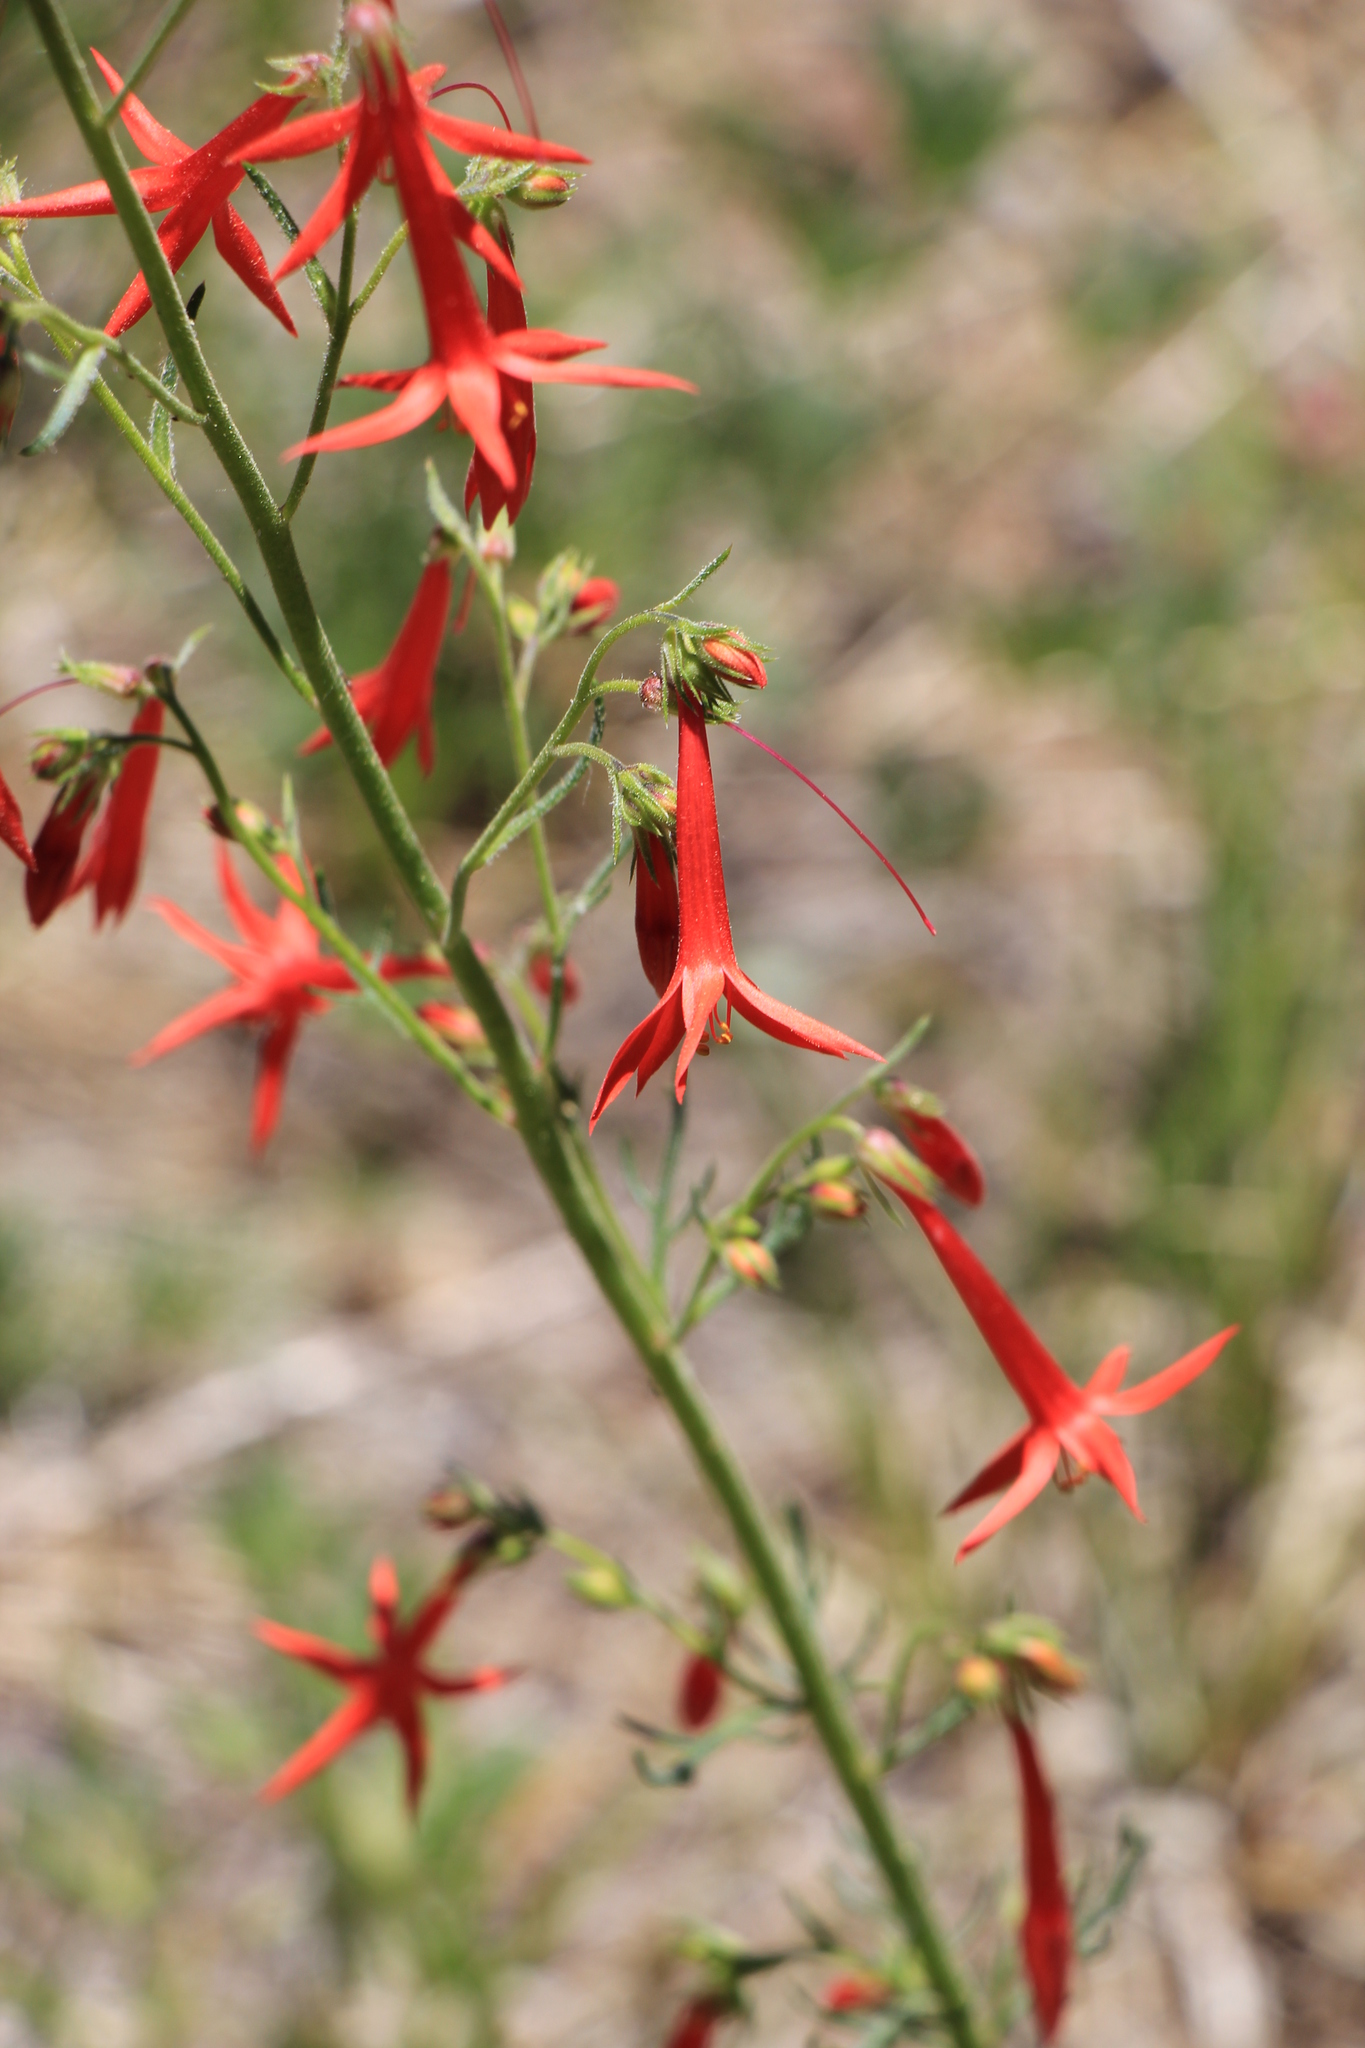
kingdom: Plantae
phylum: Tracheophyta
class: Magnoliopsida
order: Ericales
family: Polemoniaceae
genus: Ipomopsis
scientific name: Ipomopsis aggregata
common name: Scarlet gilia
